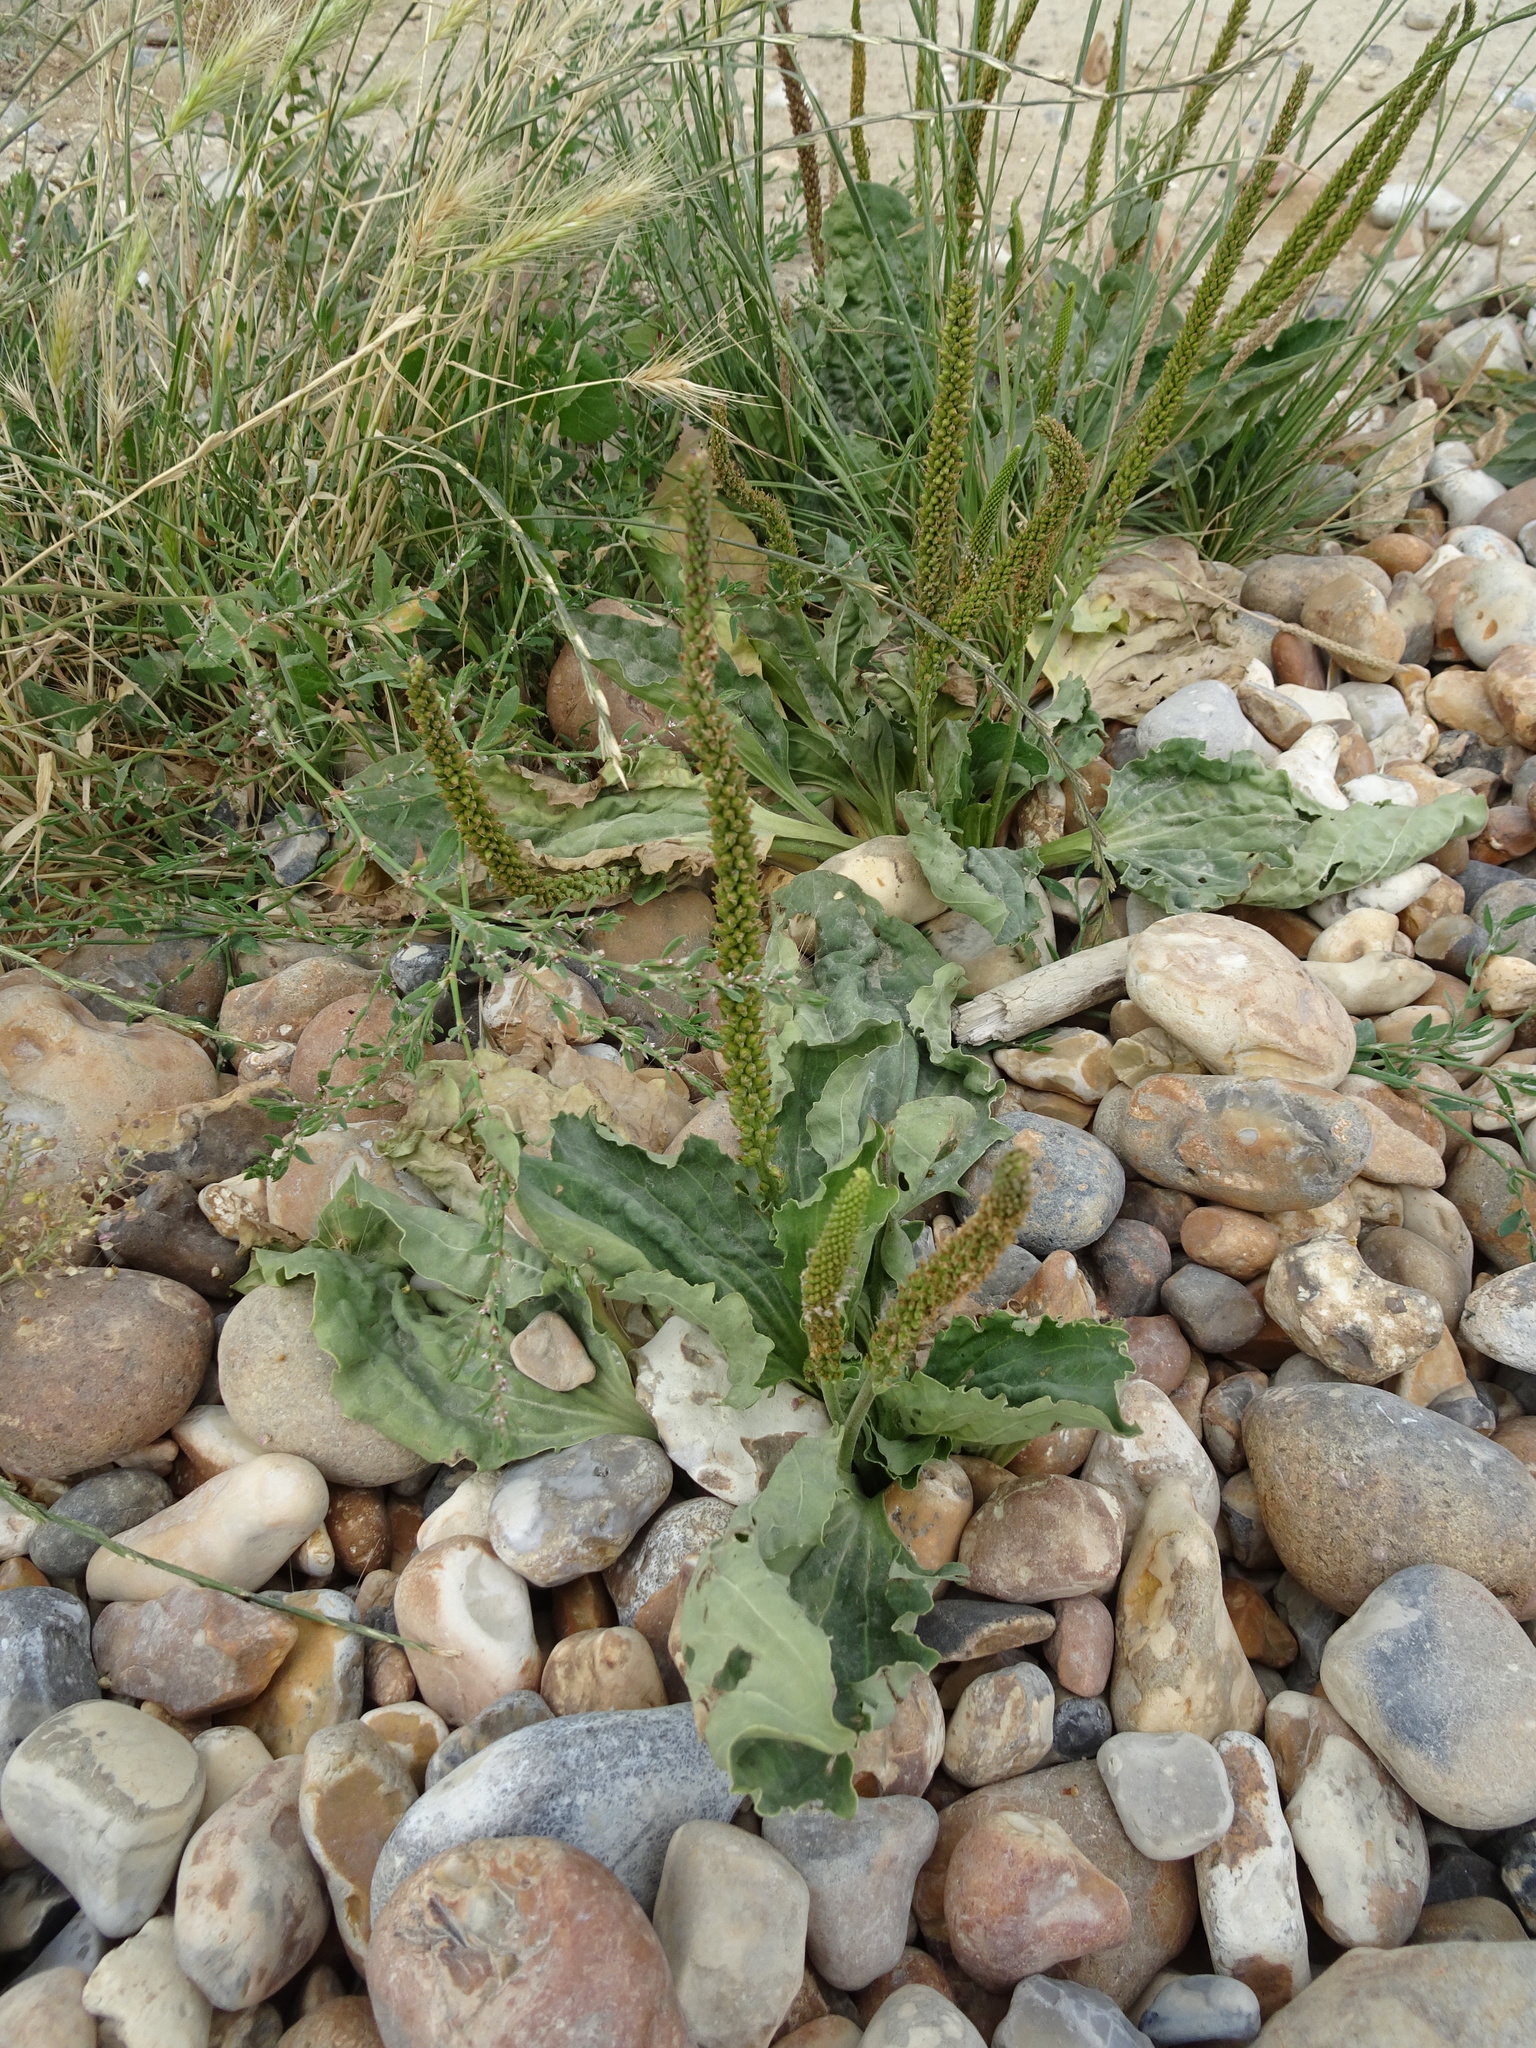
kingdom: Plantae
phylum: Tracheophyta
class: Magnoliopsida
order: Lamiales
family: Plantaginaceae
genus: Plantago
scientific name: Plantago major
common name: Common plantain
